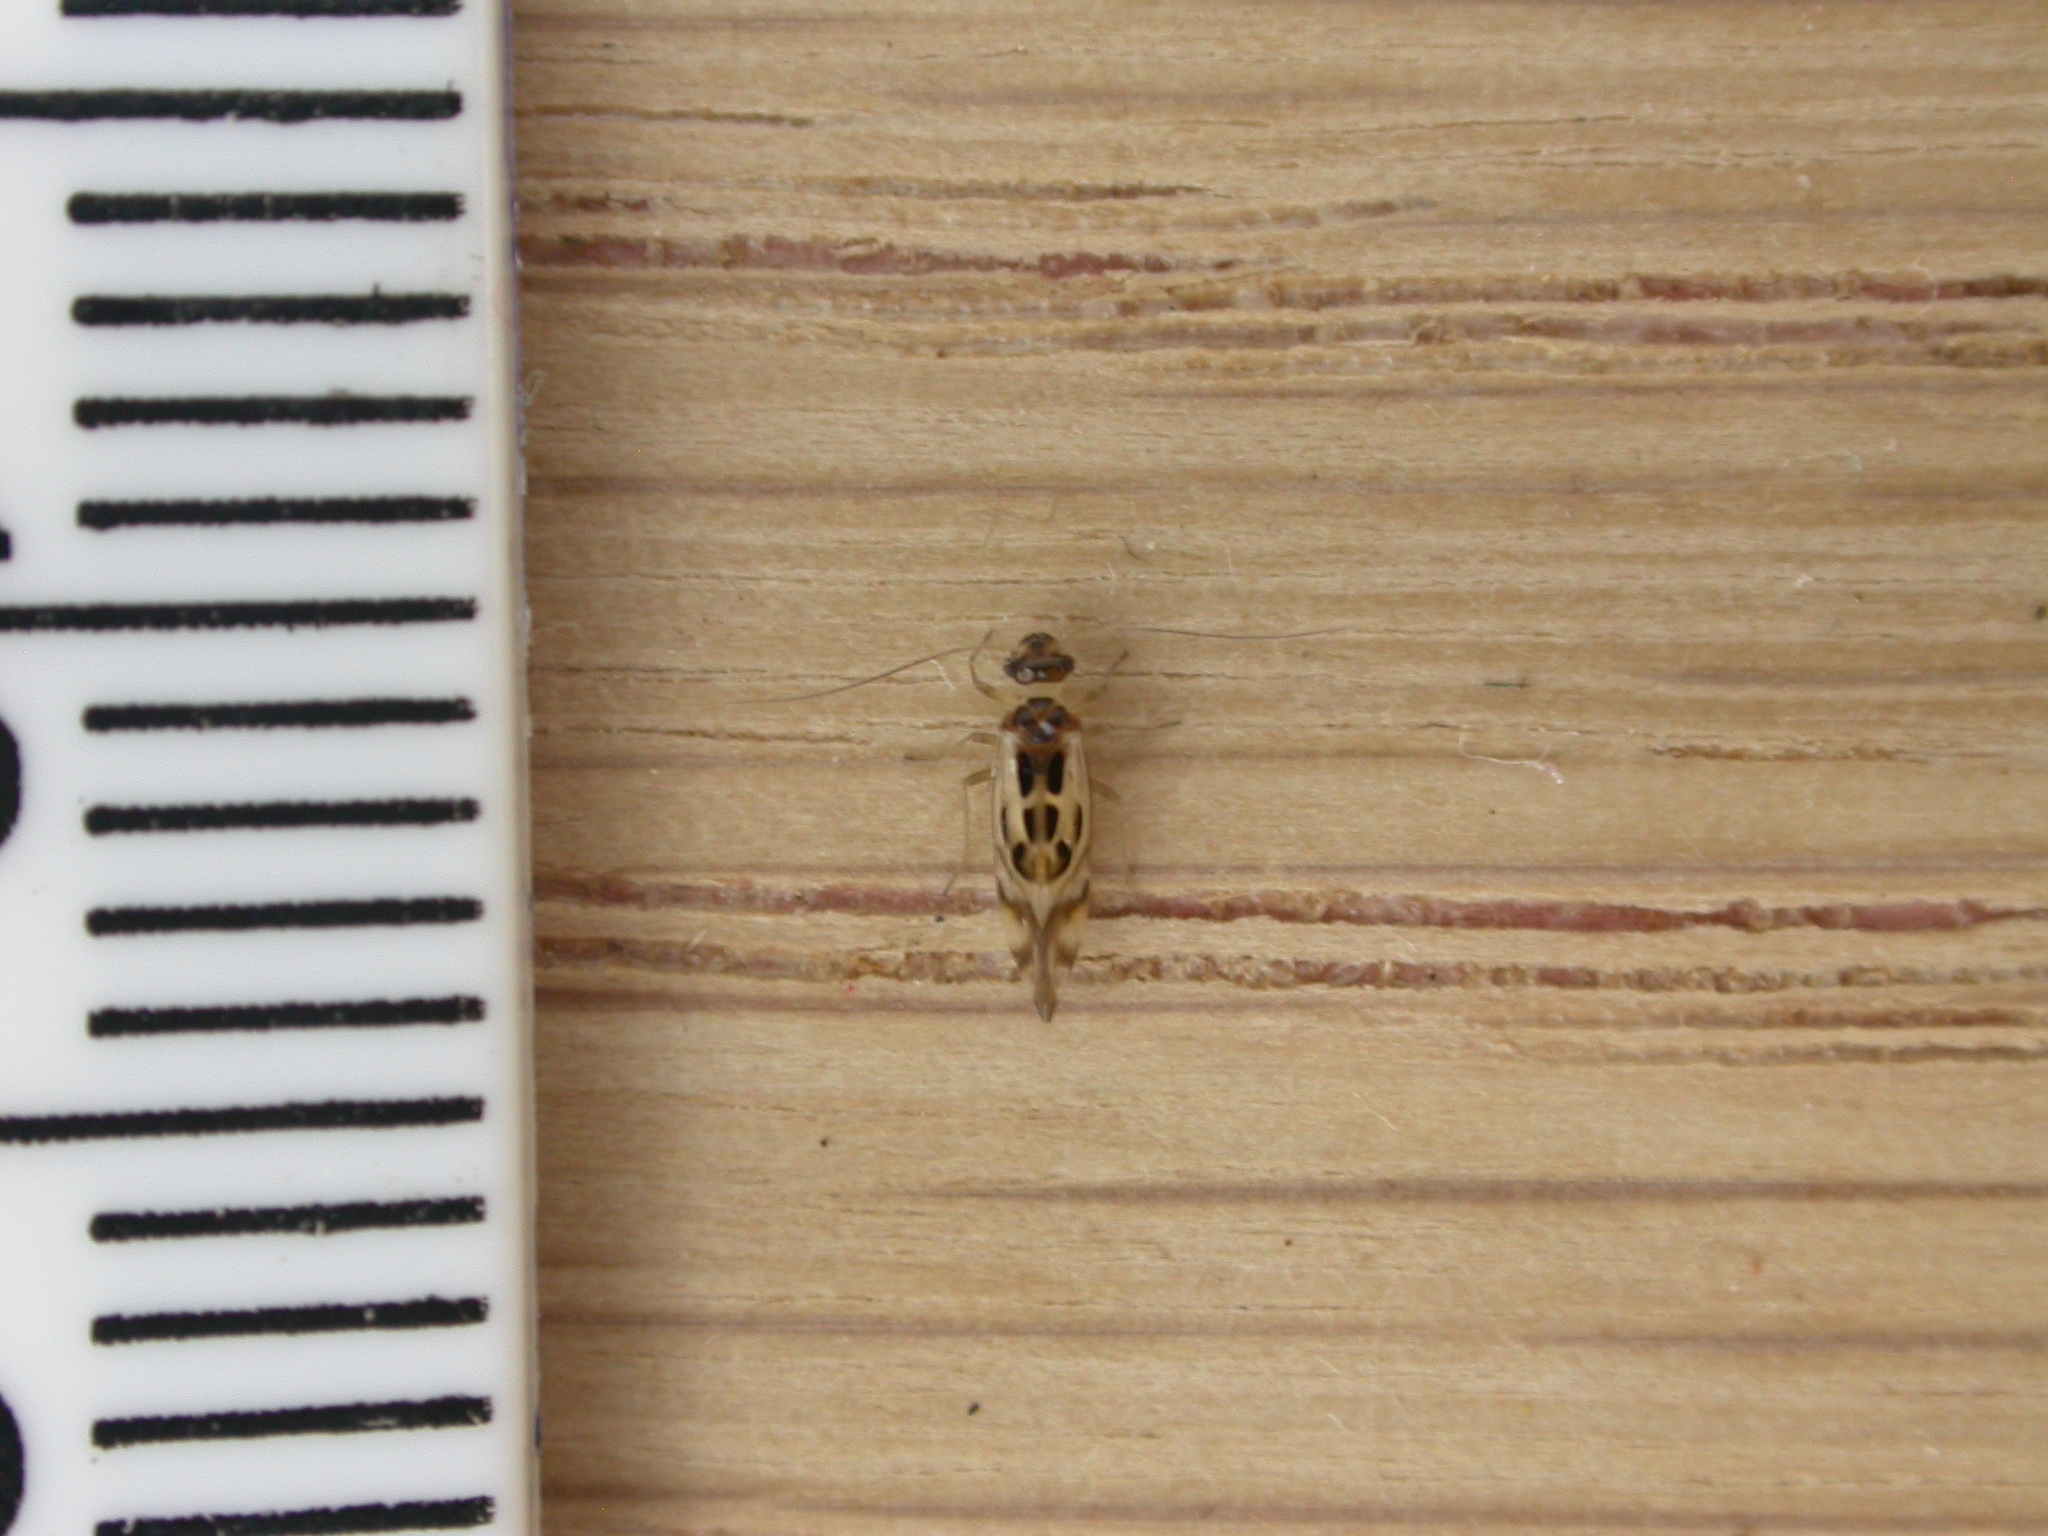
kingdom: Animalia
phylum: Arthropoda
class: Insecta
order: Psocodea
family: Stenopsocidae
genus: Graphopsocus
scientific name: Graphopsocus cruciatus
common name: Lizard bark louse
